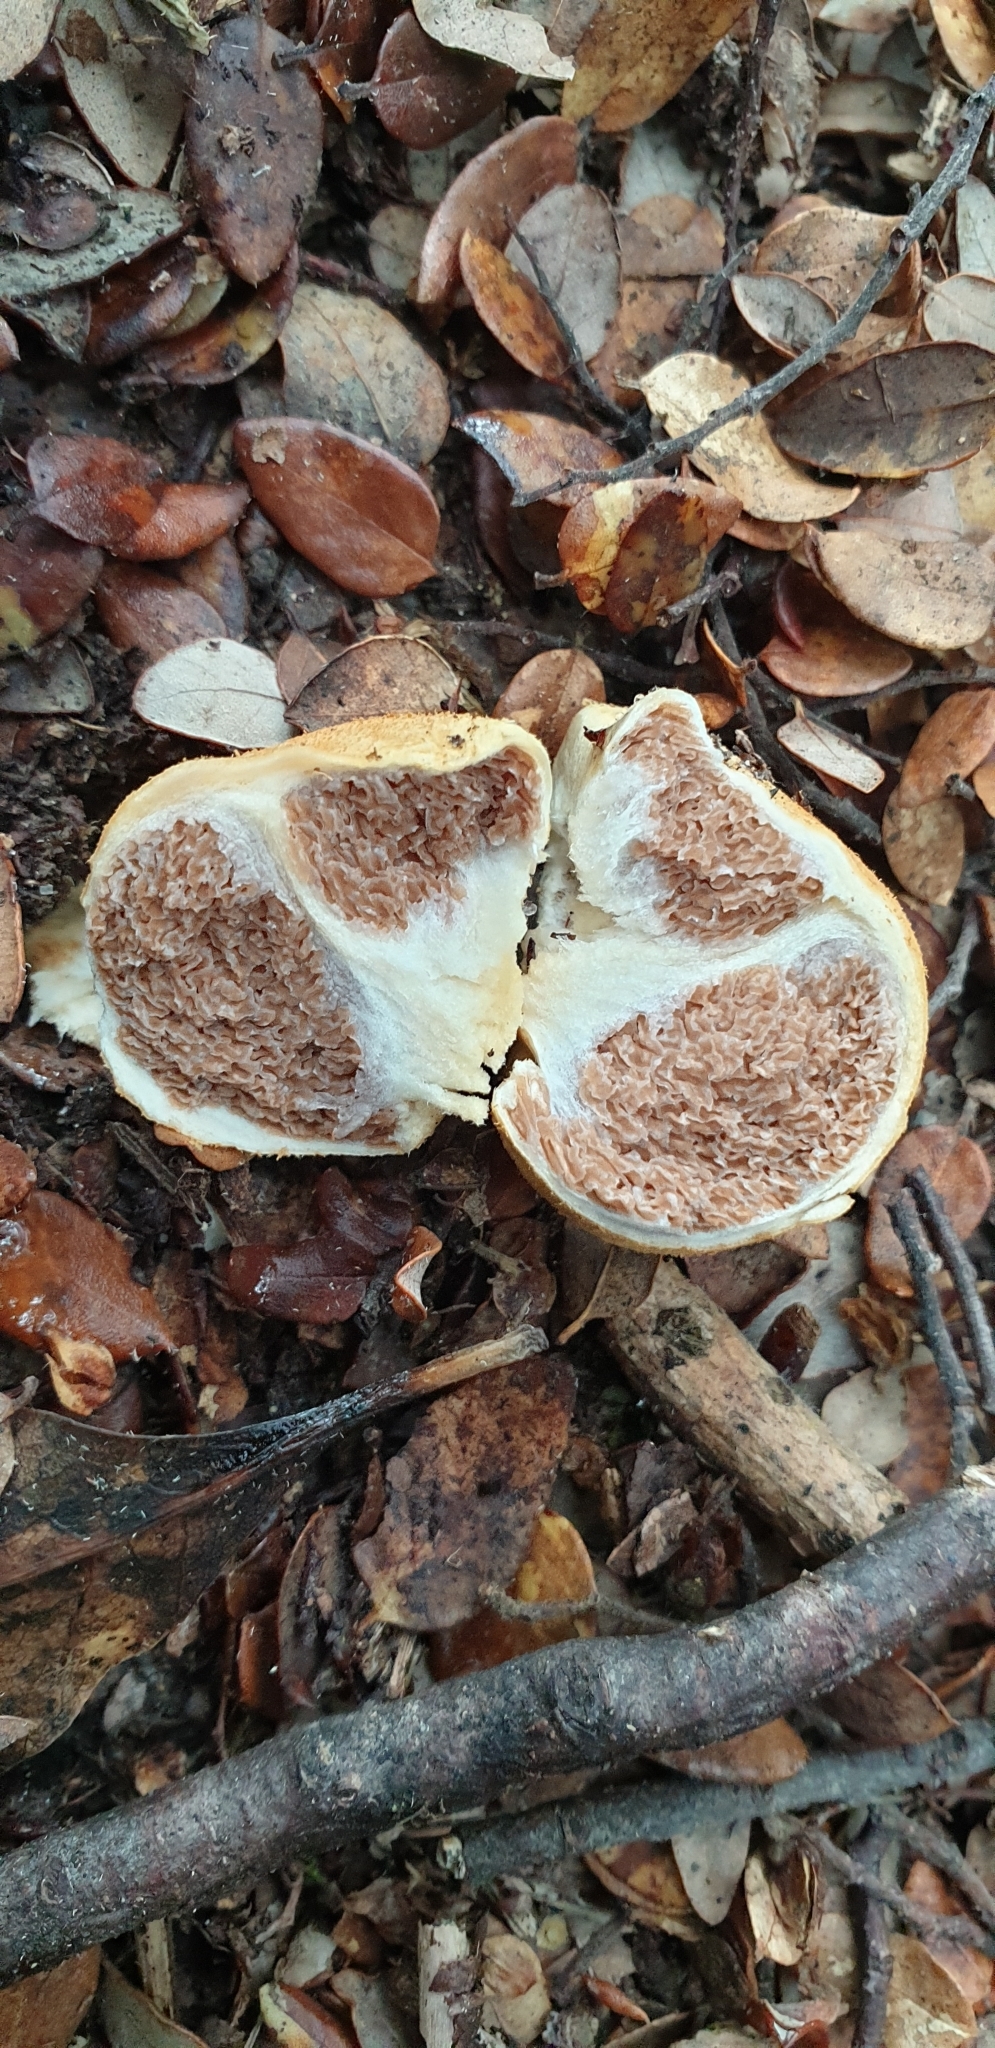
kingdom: Fungi
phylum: Basidiomycota
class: Agaricomycetes
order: Agaricales
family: Cortinariaceae
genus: Cortinarius
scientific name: Cortinarius cartilagineus
